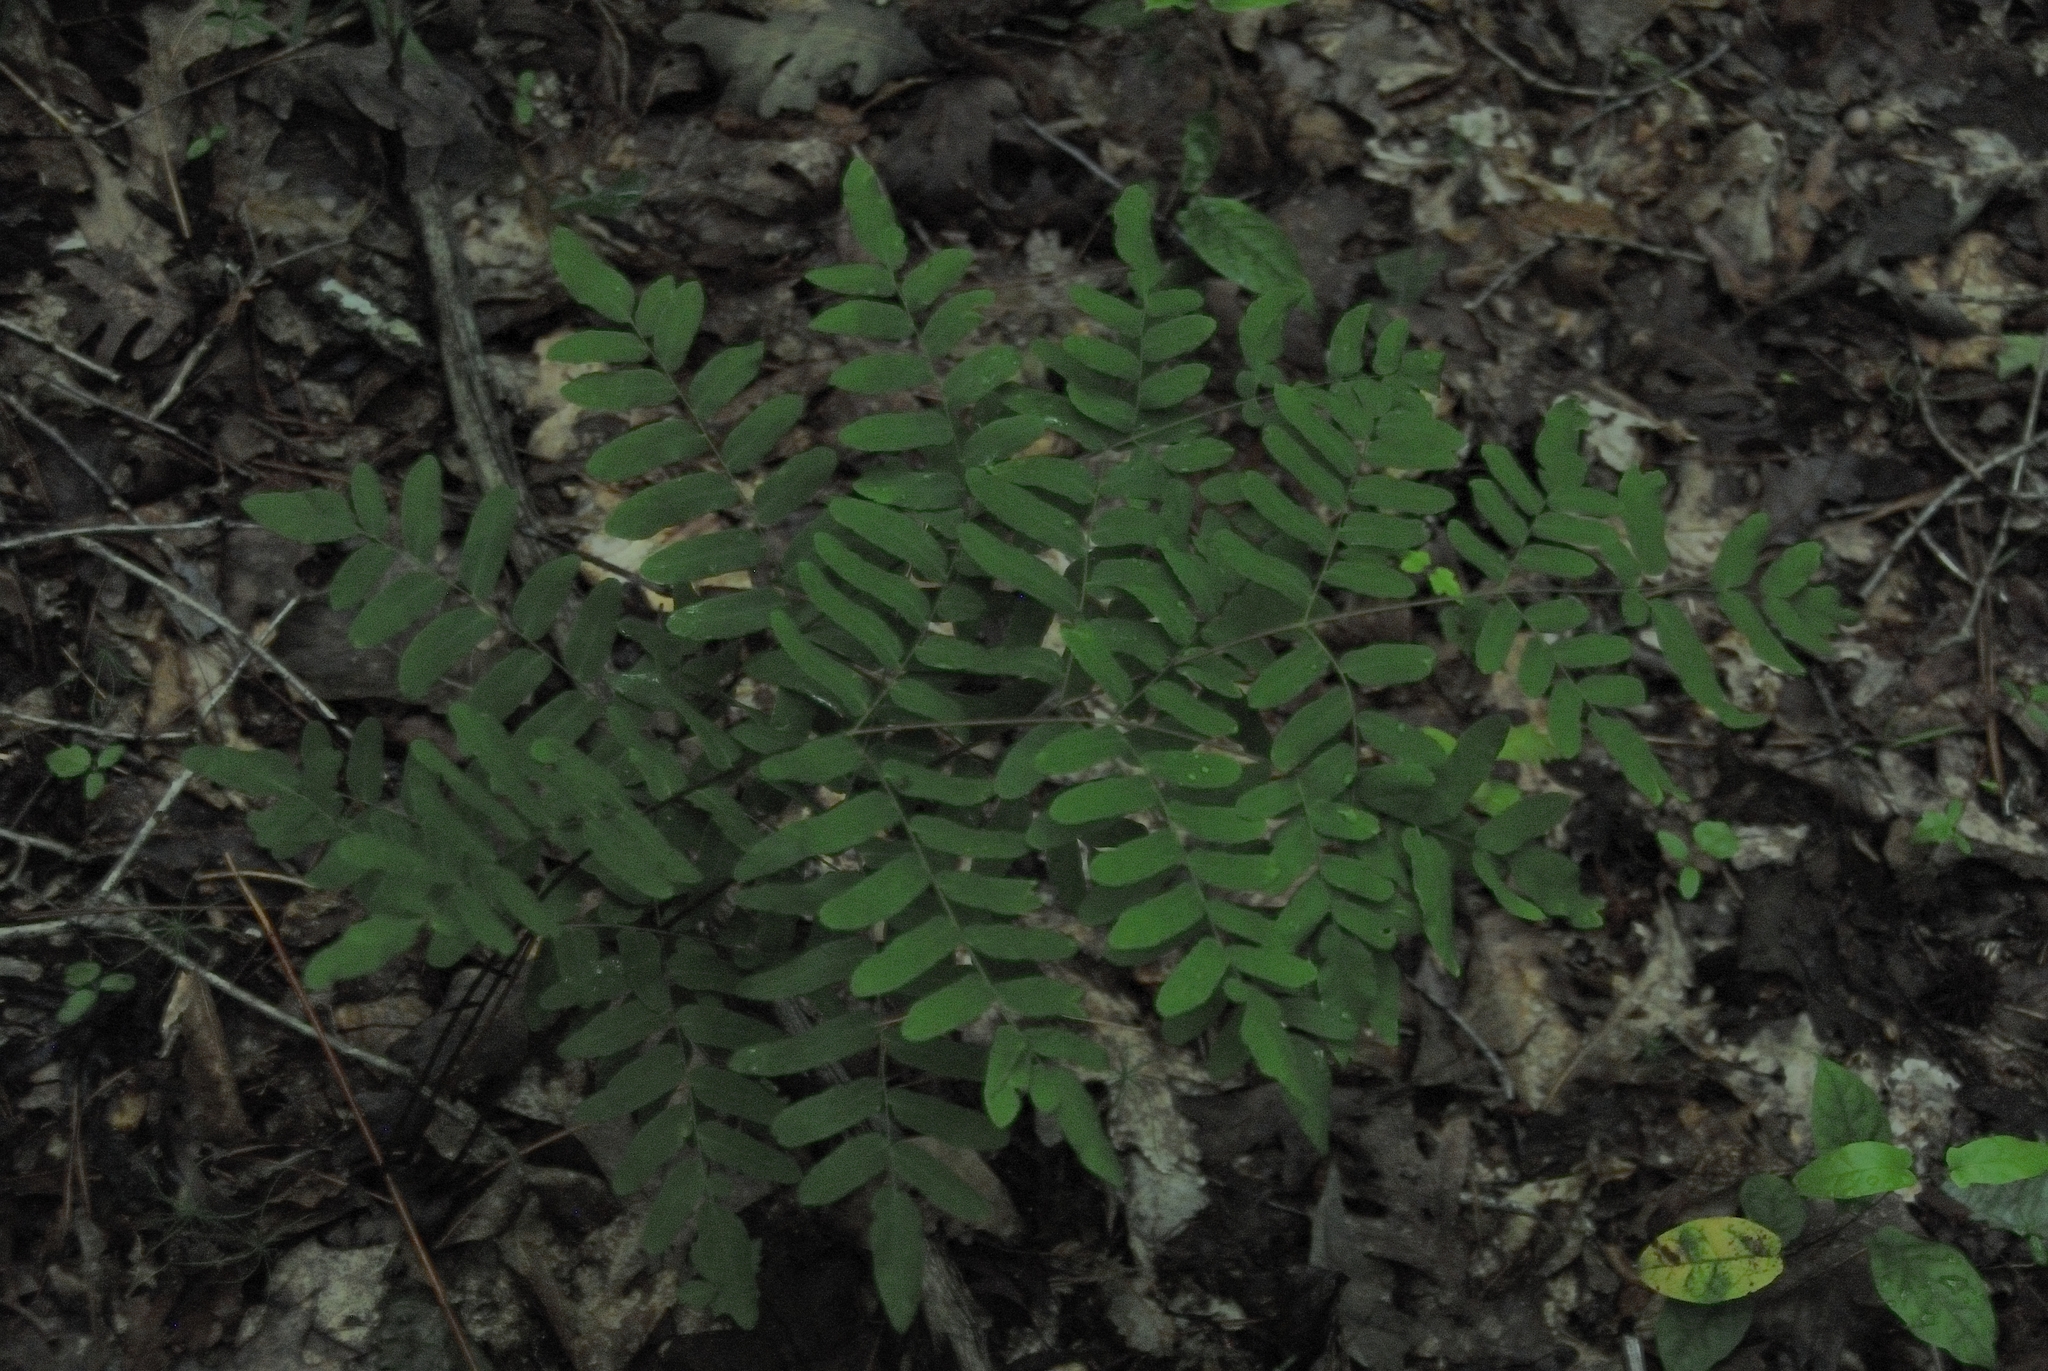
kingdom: Plantae
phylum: Tracheophyta
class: Polypodiopsida
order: Osmundales
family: Osmundaceae
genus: Osmunda
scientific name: Osmunda spectabilis
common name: American royal fern
